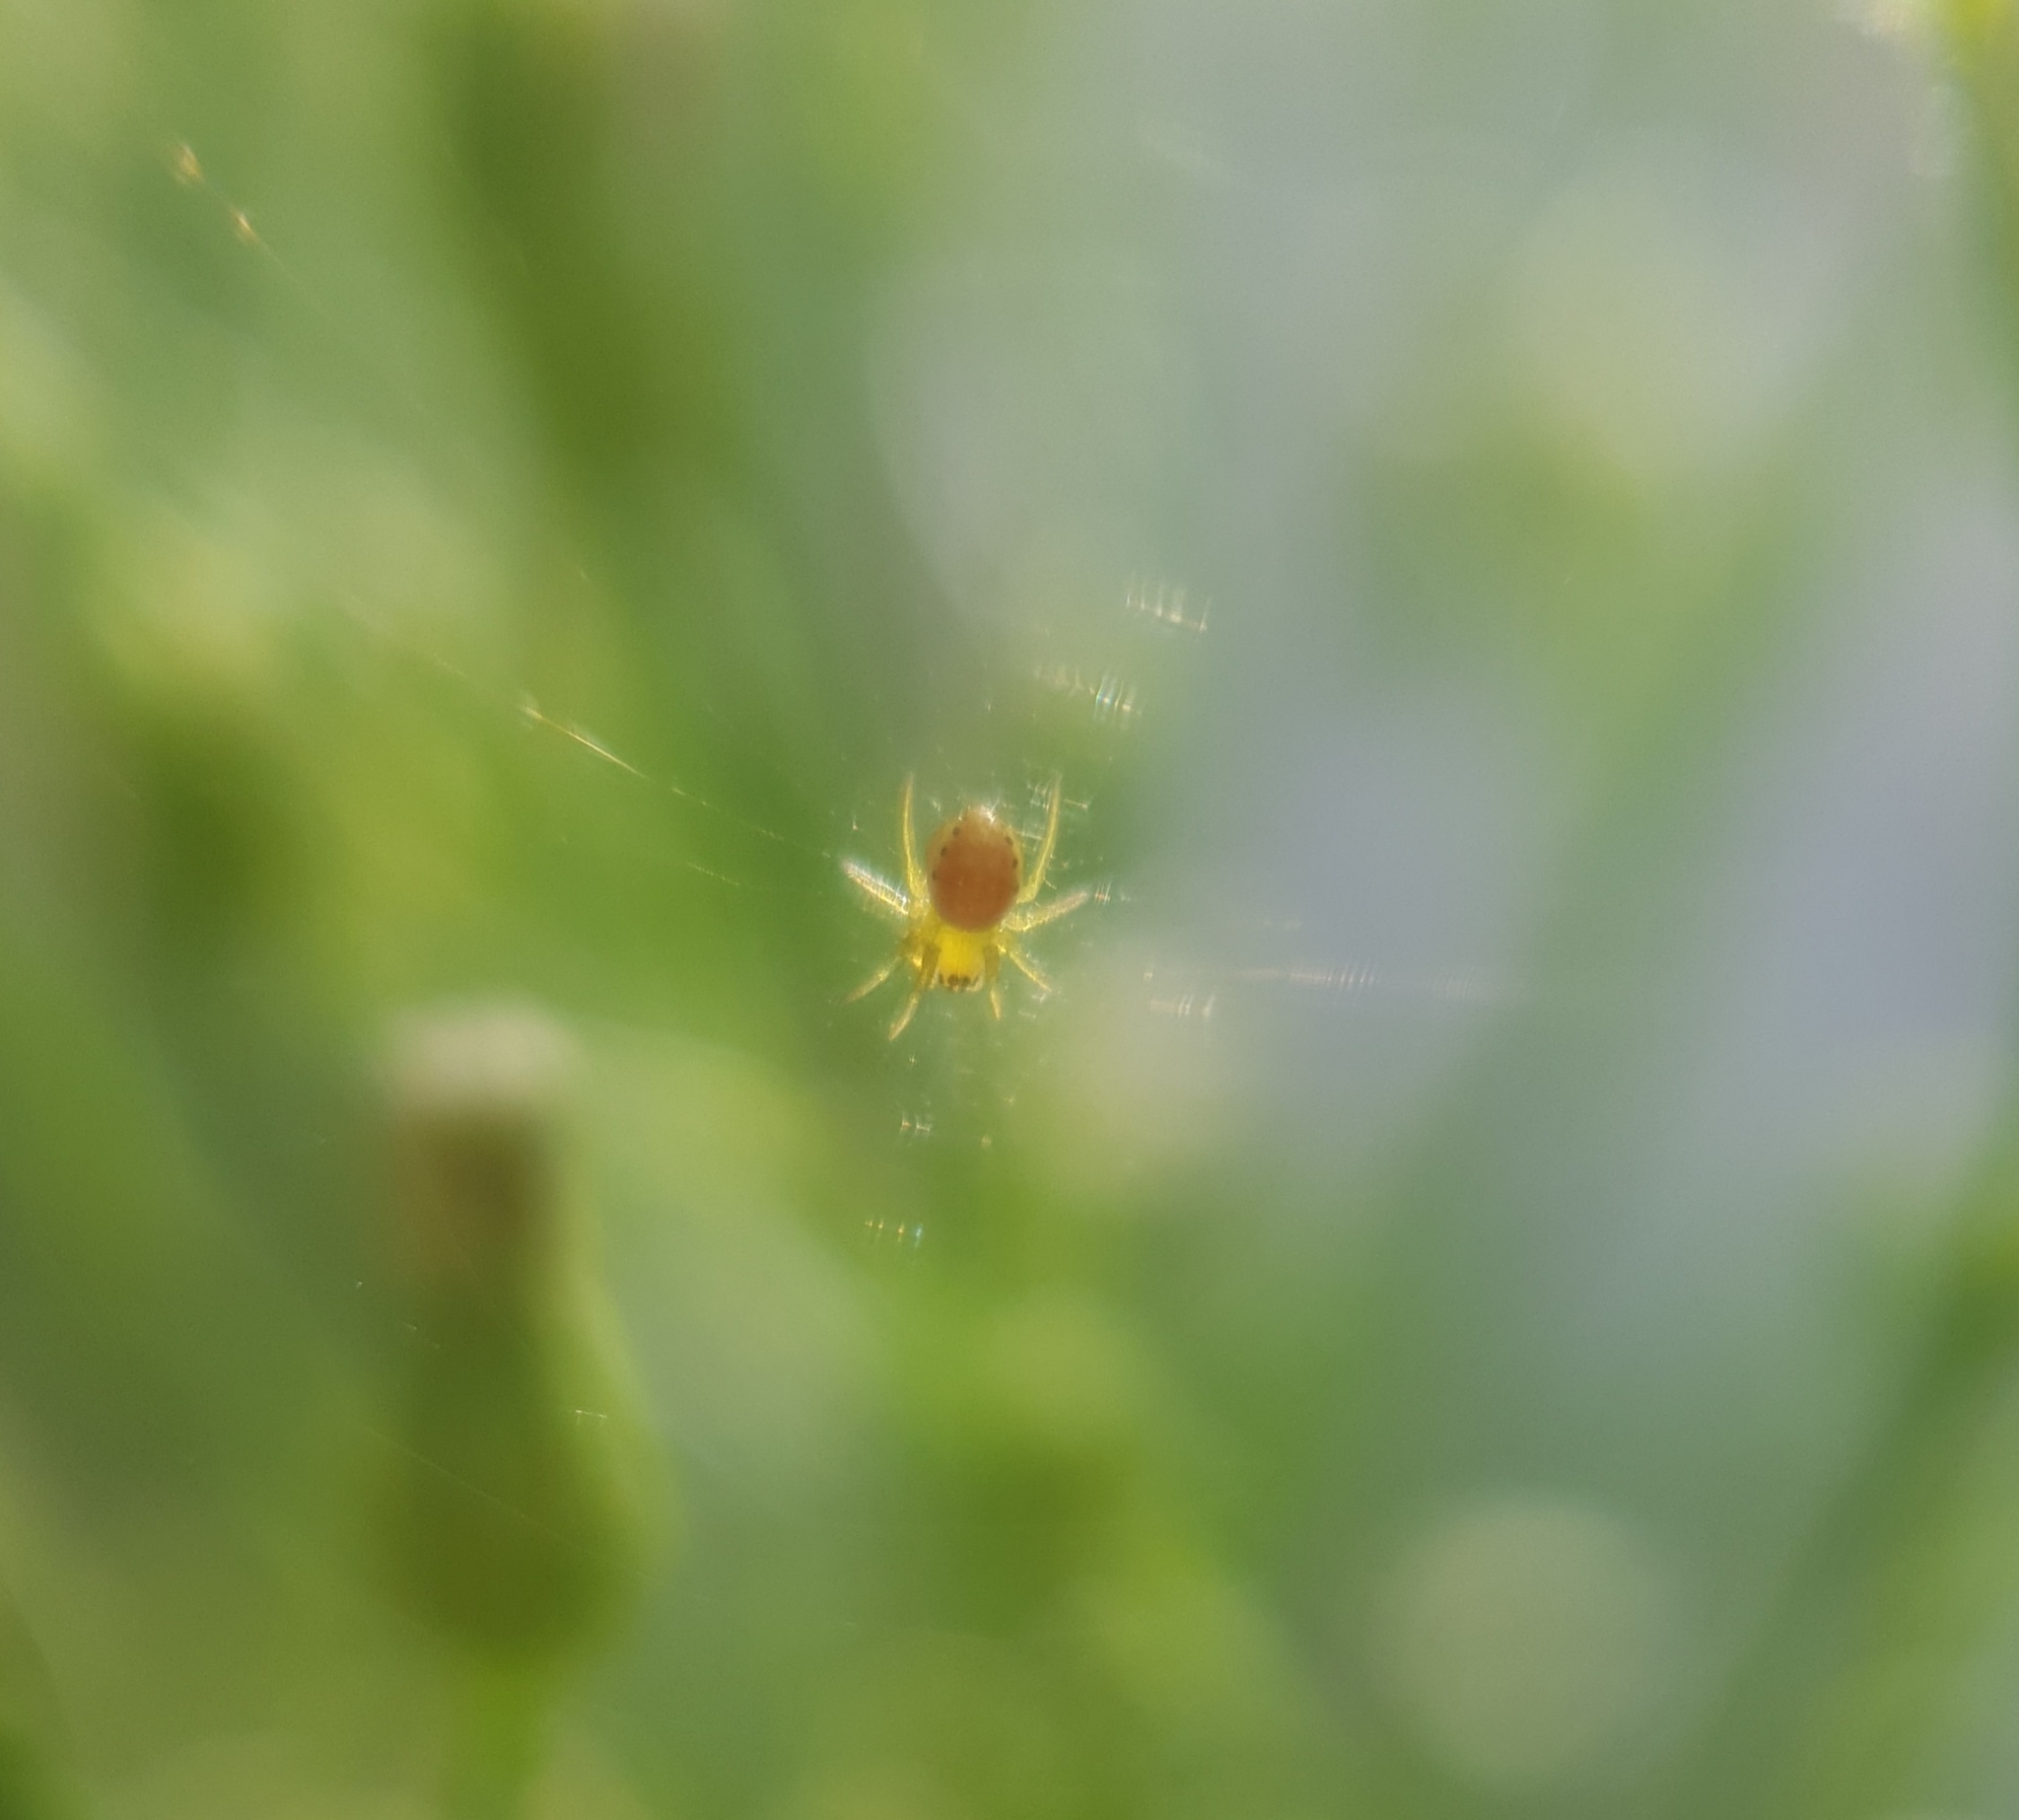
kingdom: Animalia
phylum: Arthropoda
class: Arachnida
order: Araneae
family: Araneidae
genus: Araniella
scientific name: Araniella
